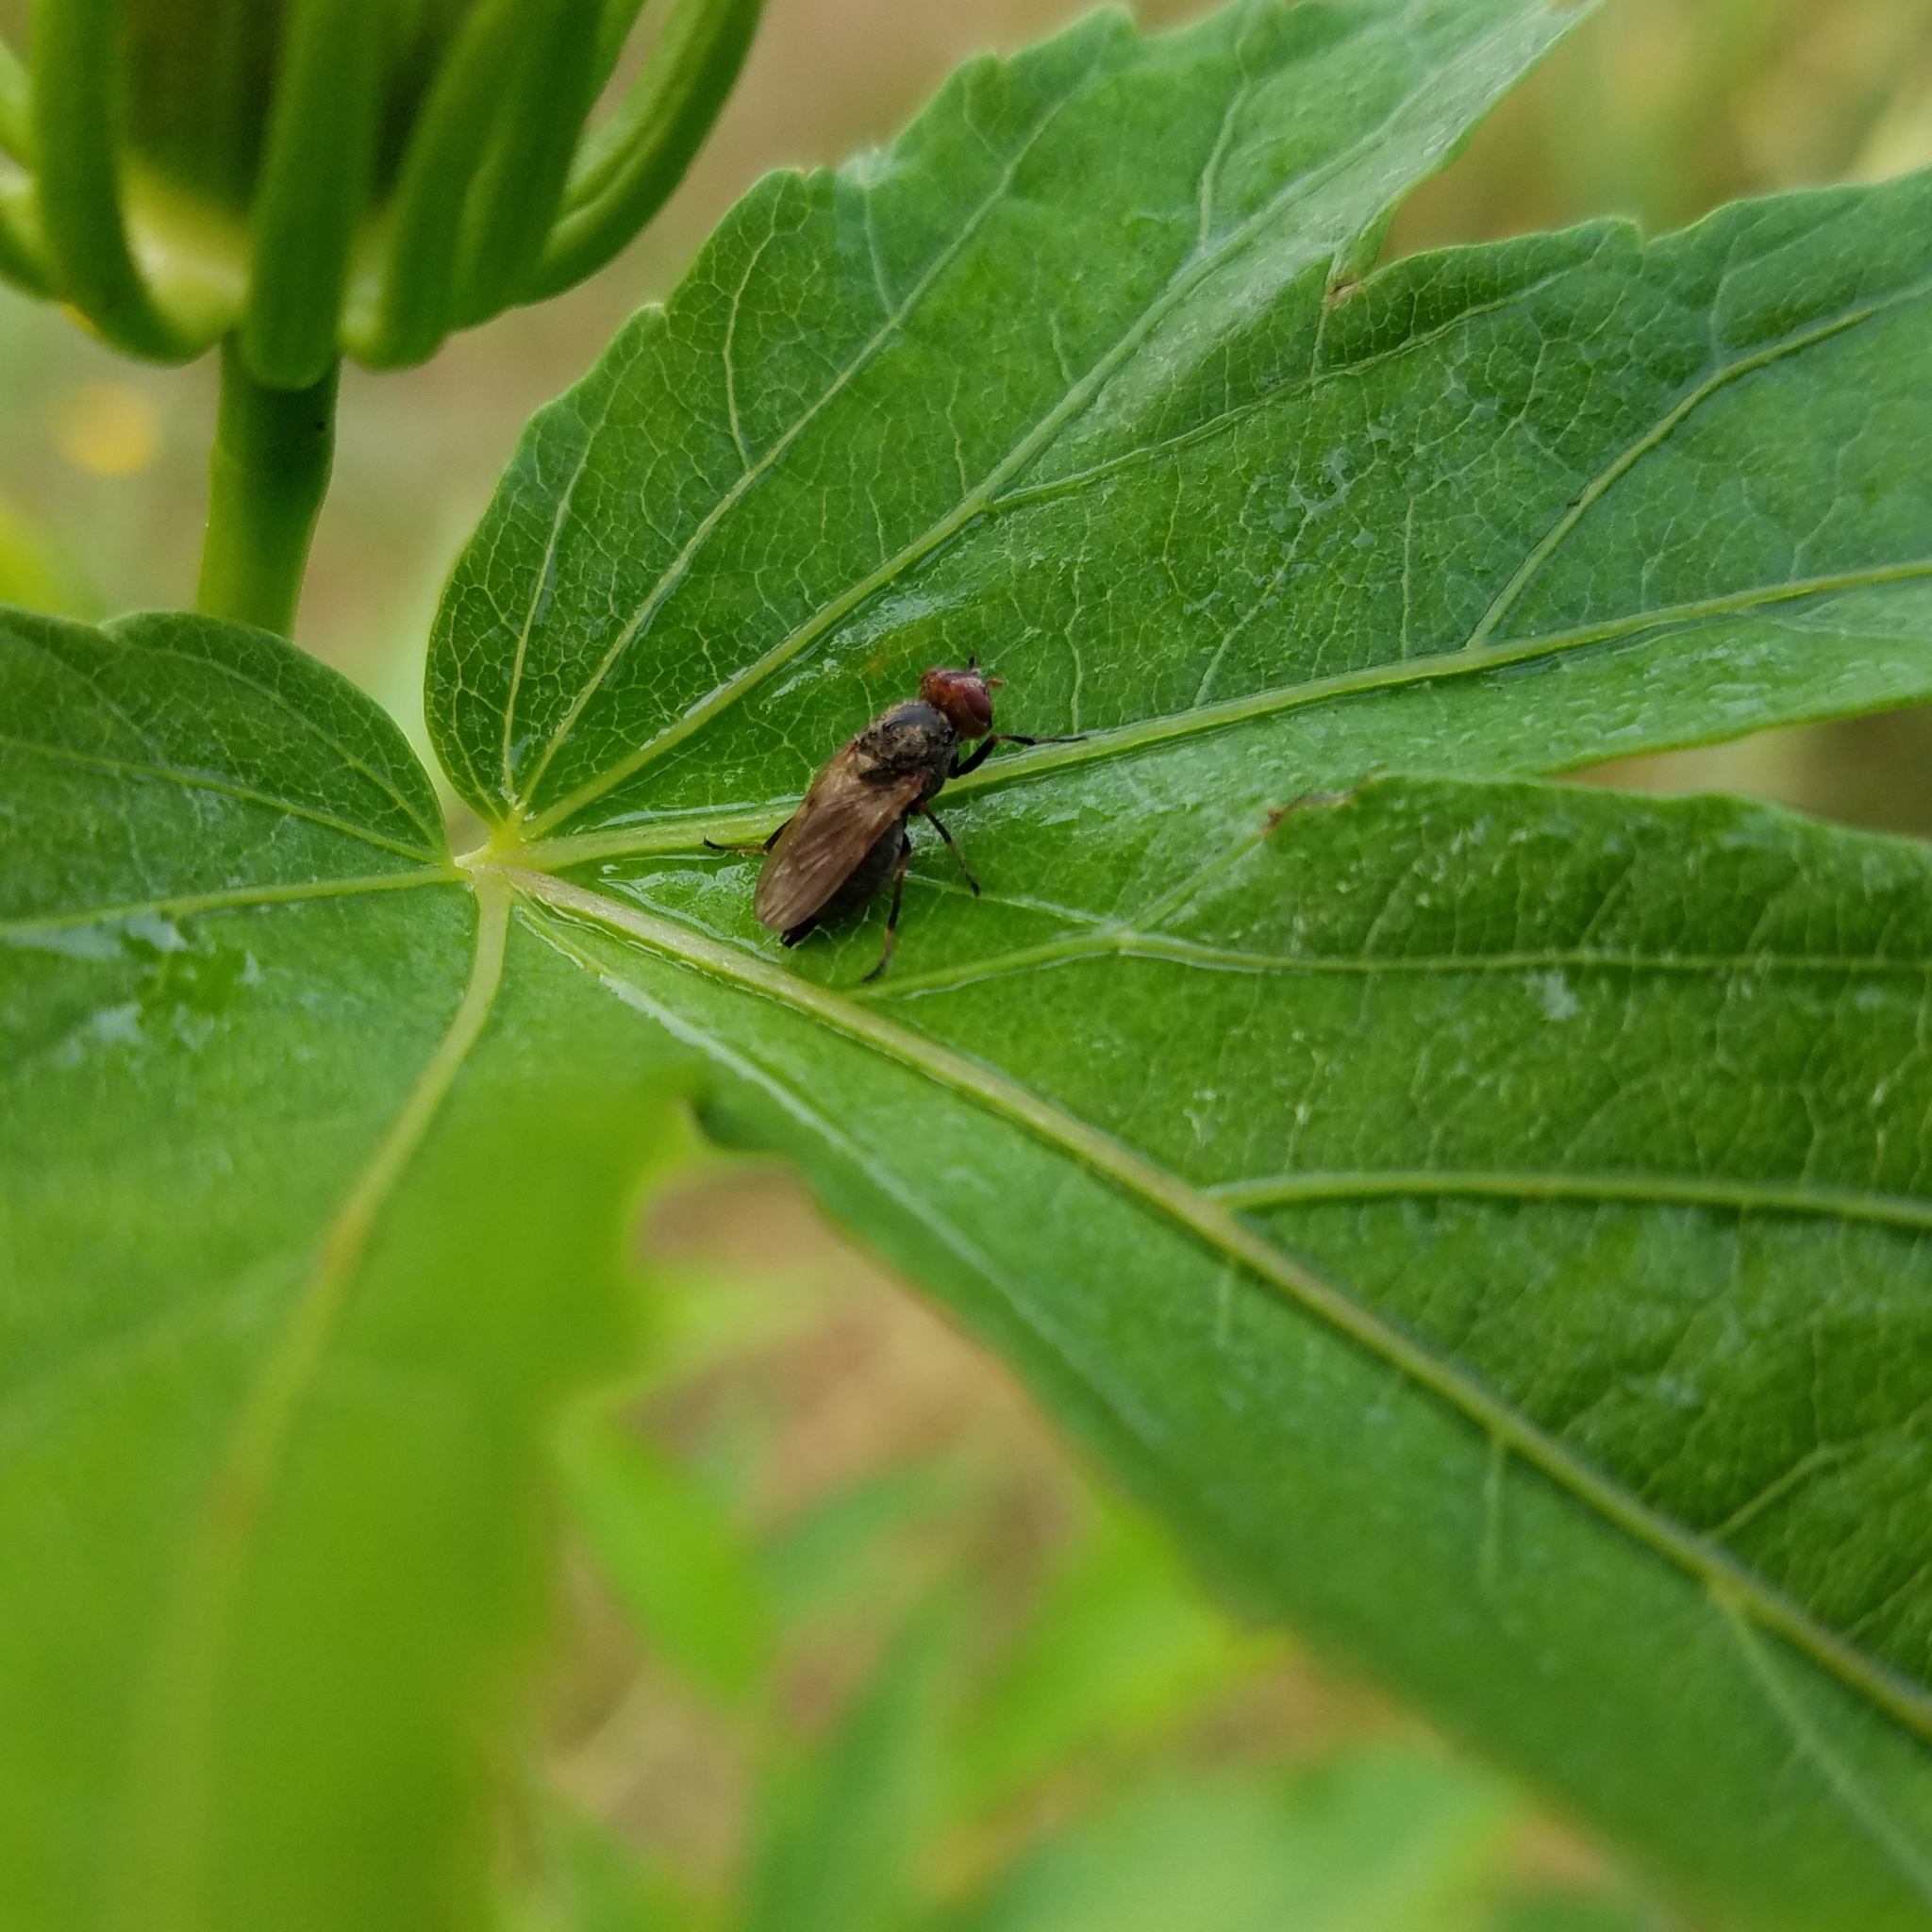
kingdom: Animalia
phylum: Arthropoda
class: Insecta
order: Diptera
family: Ulidiidae
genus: Tetanops
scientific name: Tetanops luridipennis
